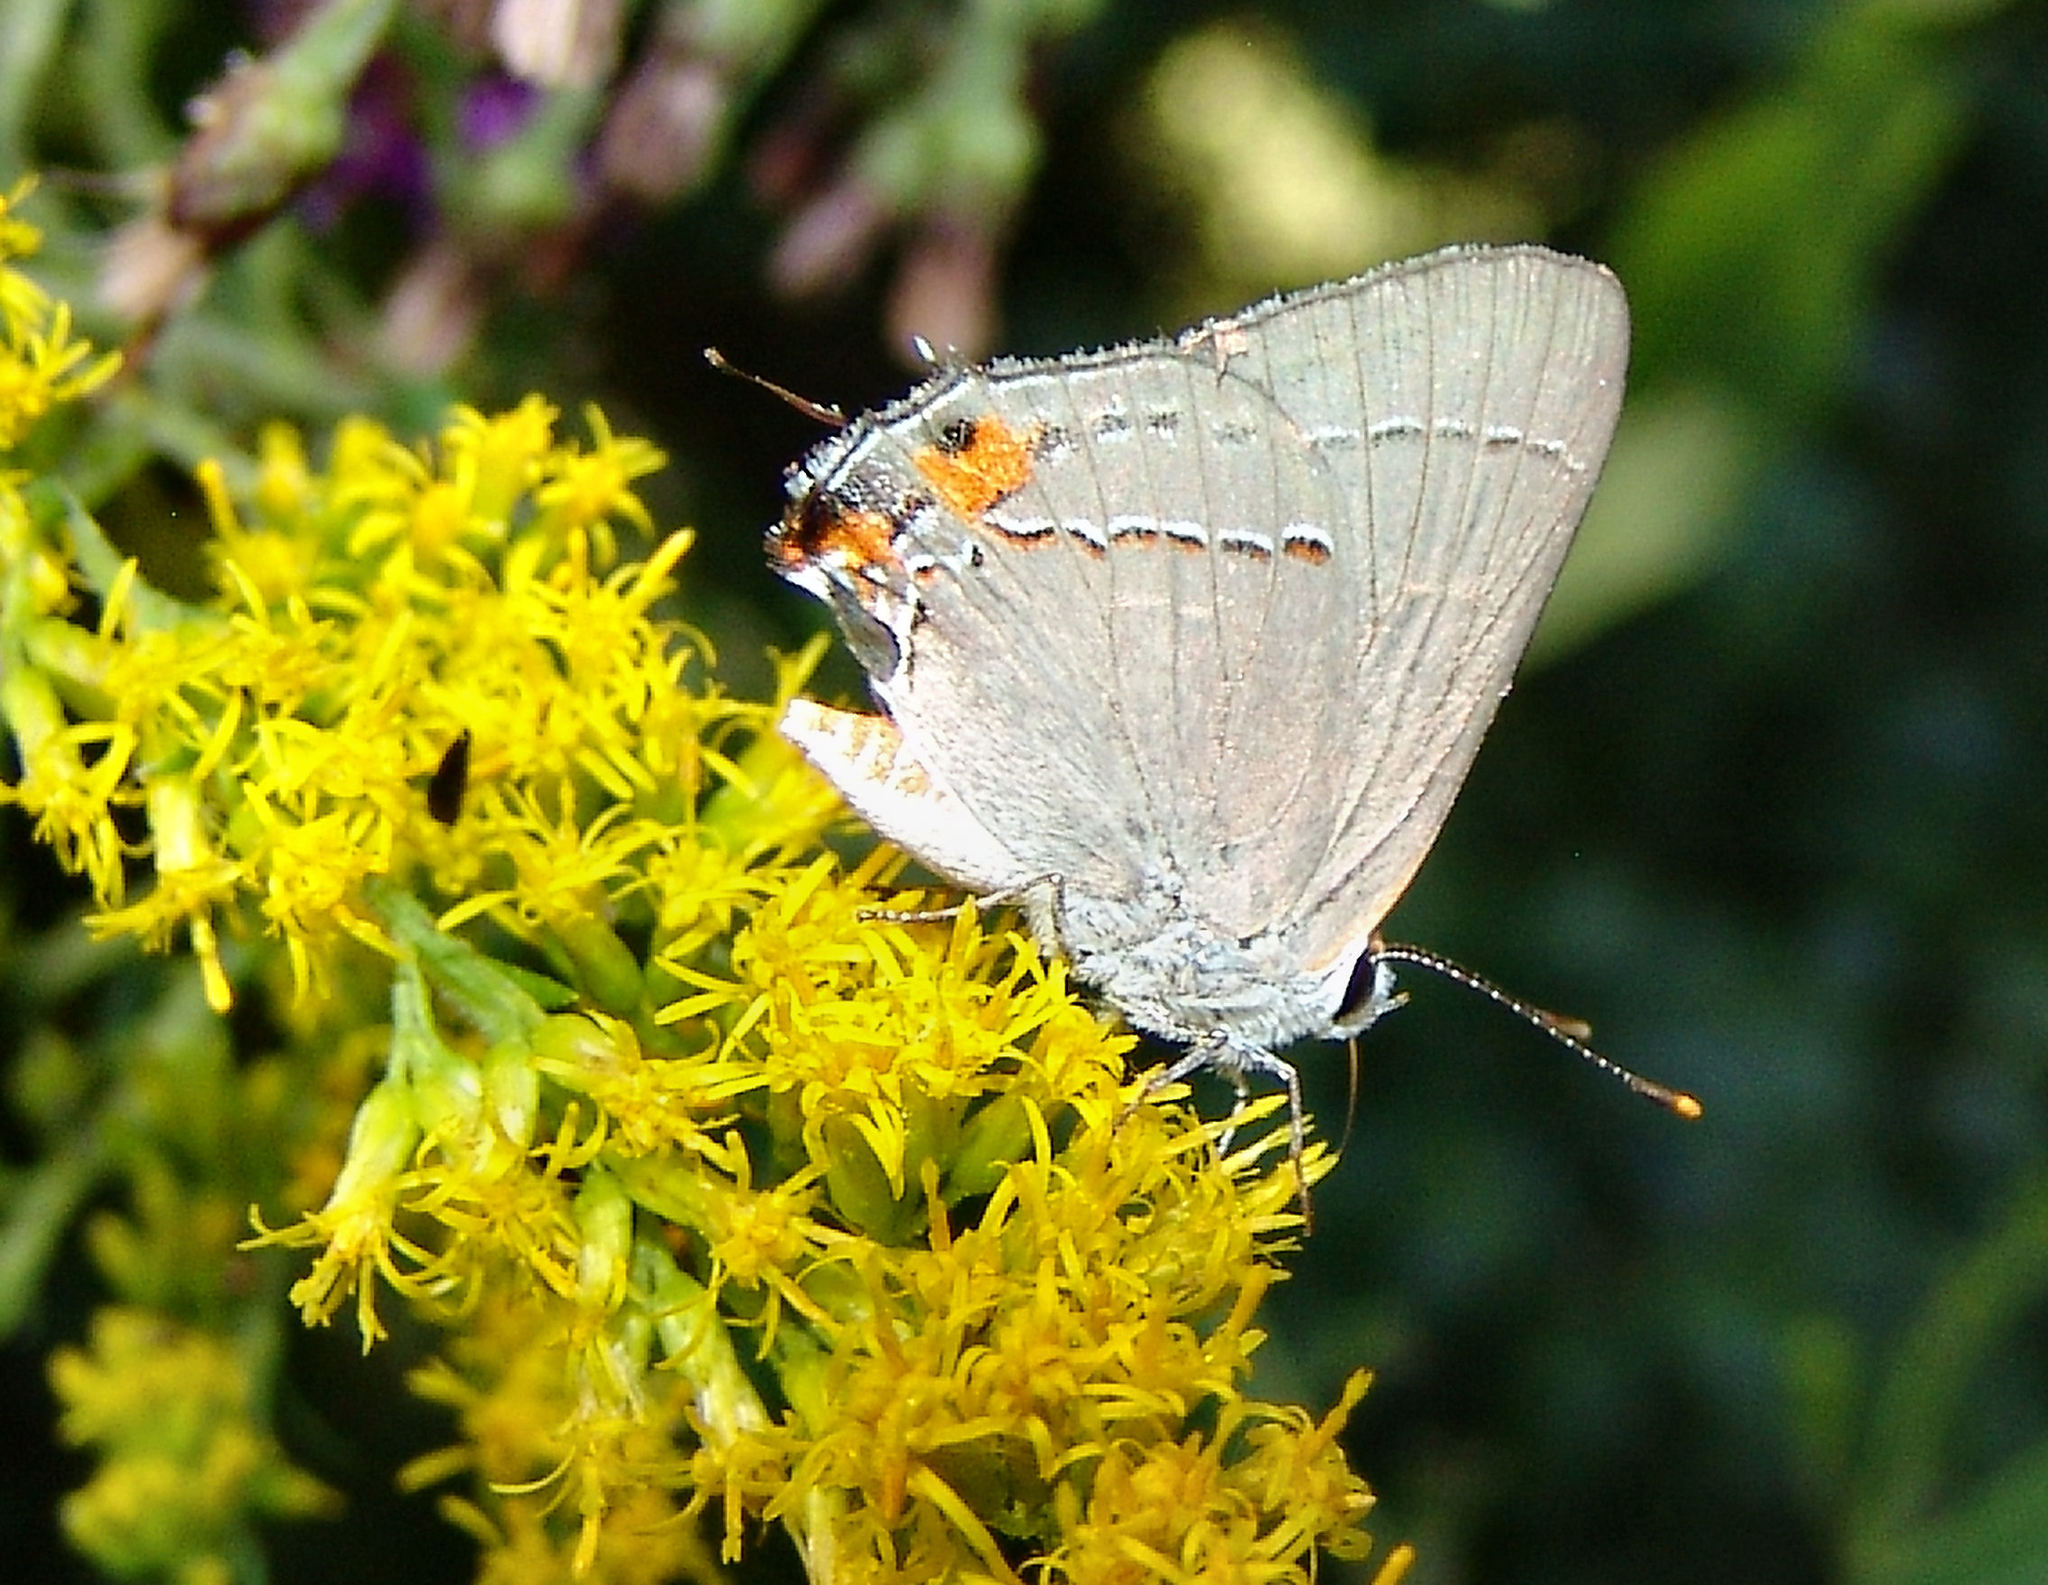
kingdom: Animalia
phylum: Arthropoda
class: Insecta
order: Lepidoptera
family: Lycaenidae
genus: Strymon
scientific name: Strymon melinus
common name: Gray hairstreak
